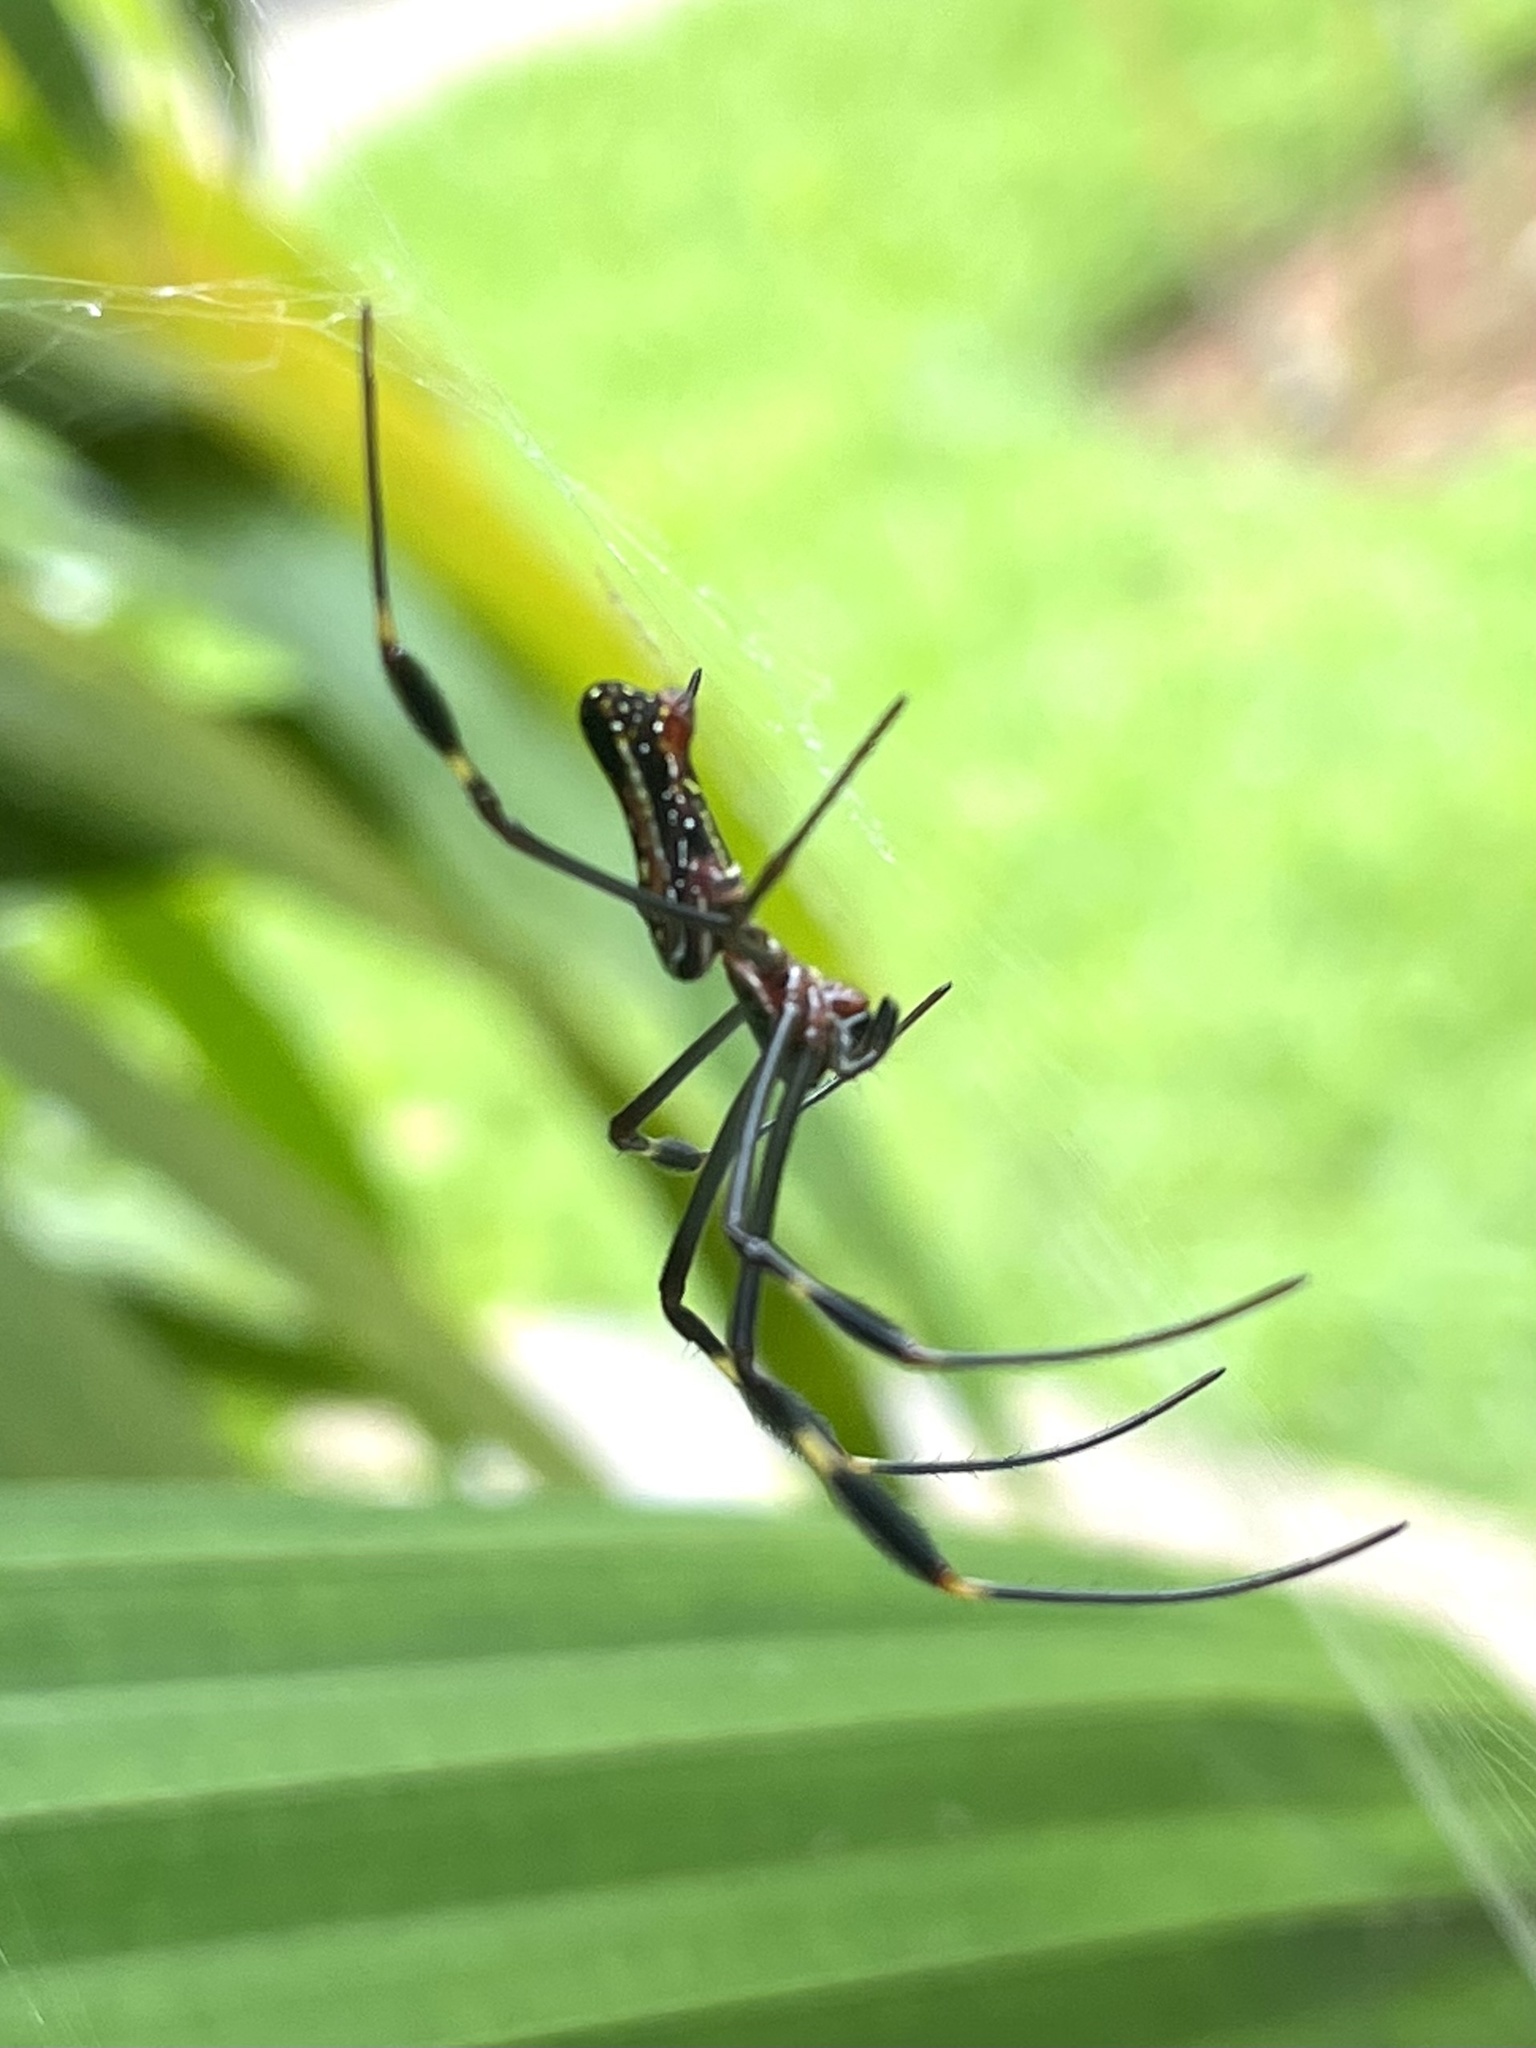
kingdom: Animalia
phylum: Arthropoda
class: Arachnida
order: Araneae
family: Araneidae
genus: Trichonephila
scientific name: Trichonephila clavipes
